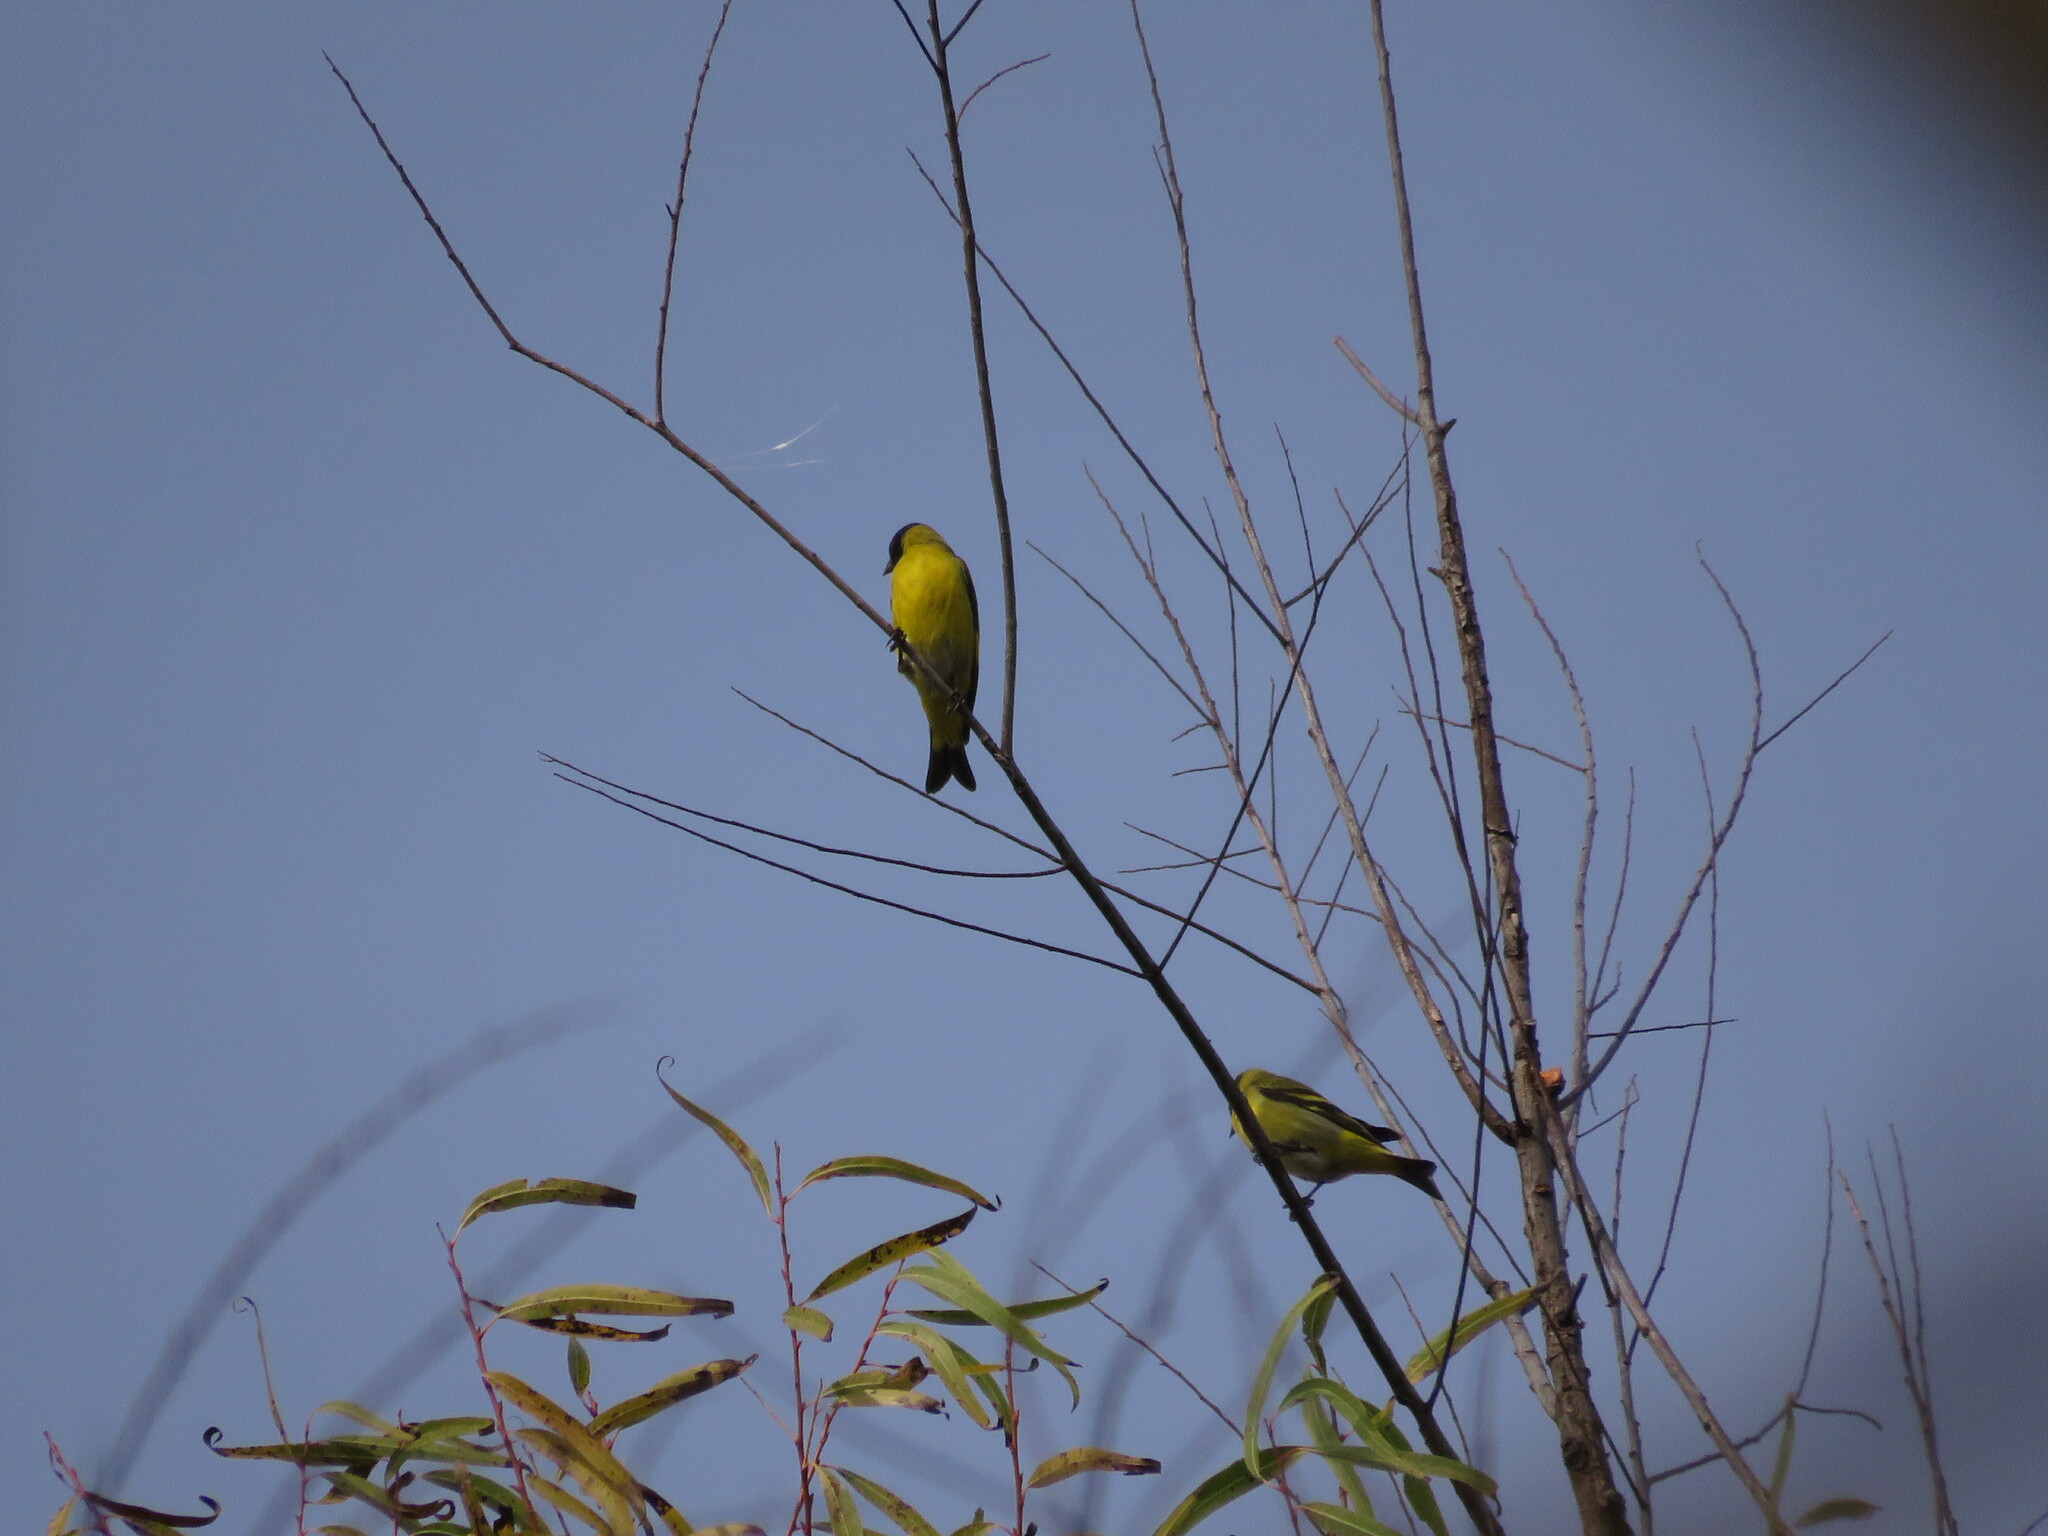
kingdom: Animalia
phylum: Chordata
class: Aves
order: Passeriformes
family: Fringillidae
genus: Spinus
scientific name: Spinus magellanicus
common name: Hooded siskin
